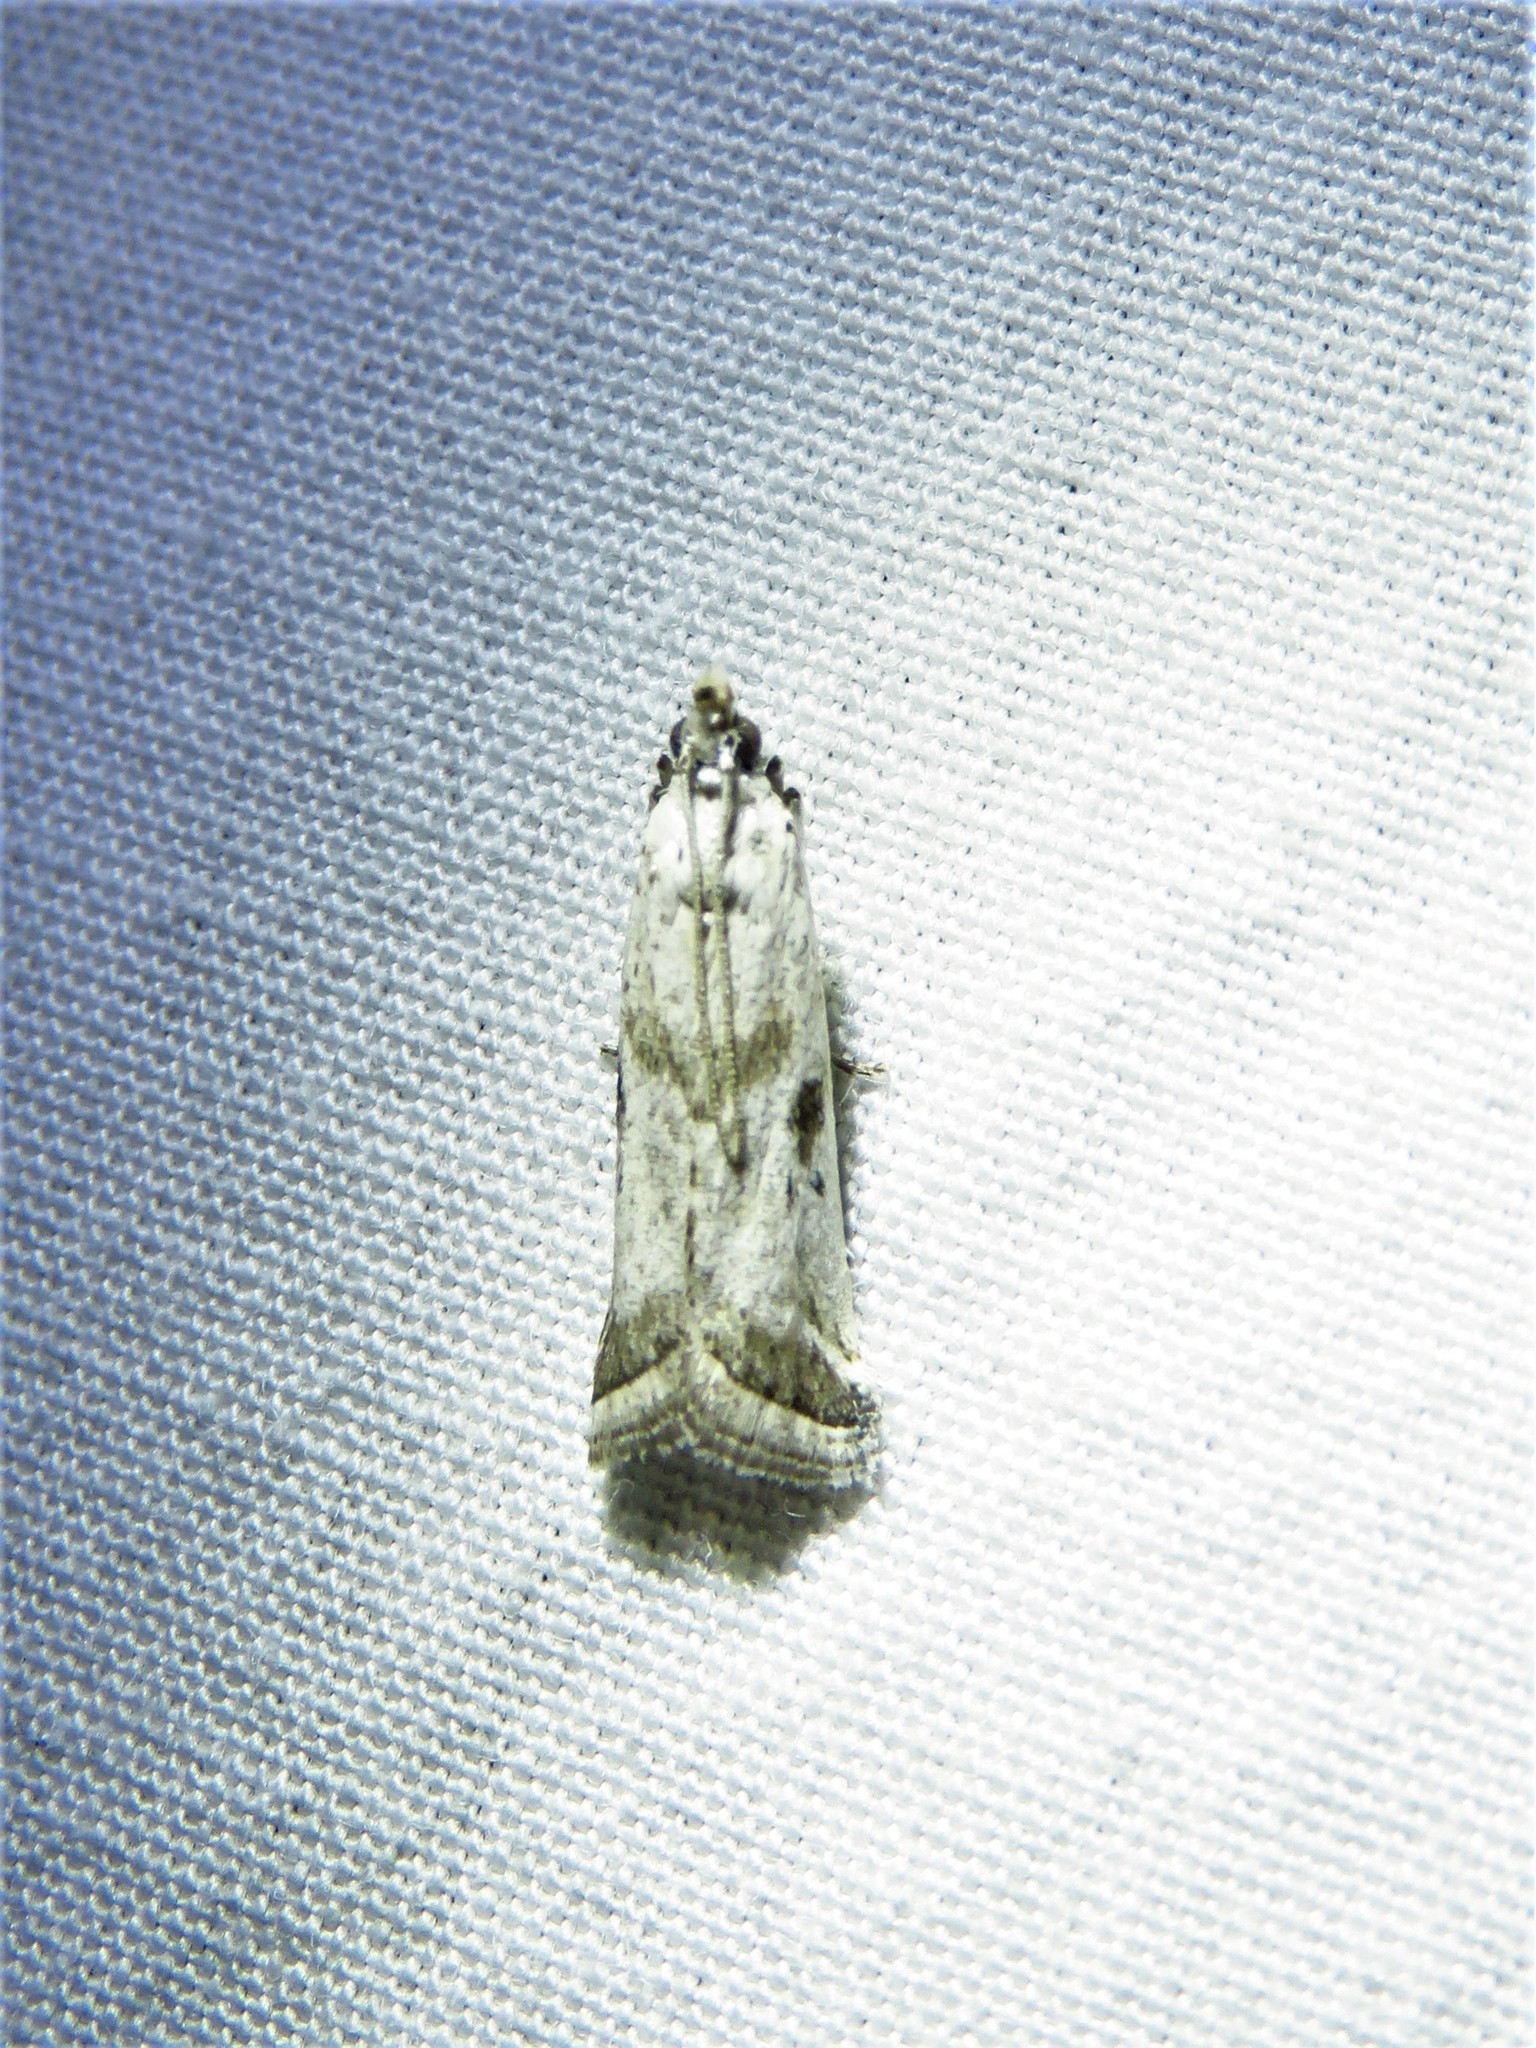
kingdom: Animalia
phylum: Arthropoda
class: Insecta
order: Lepidoptera
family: Pyralidae
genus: Diviana
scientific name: Diviana eudoreella
